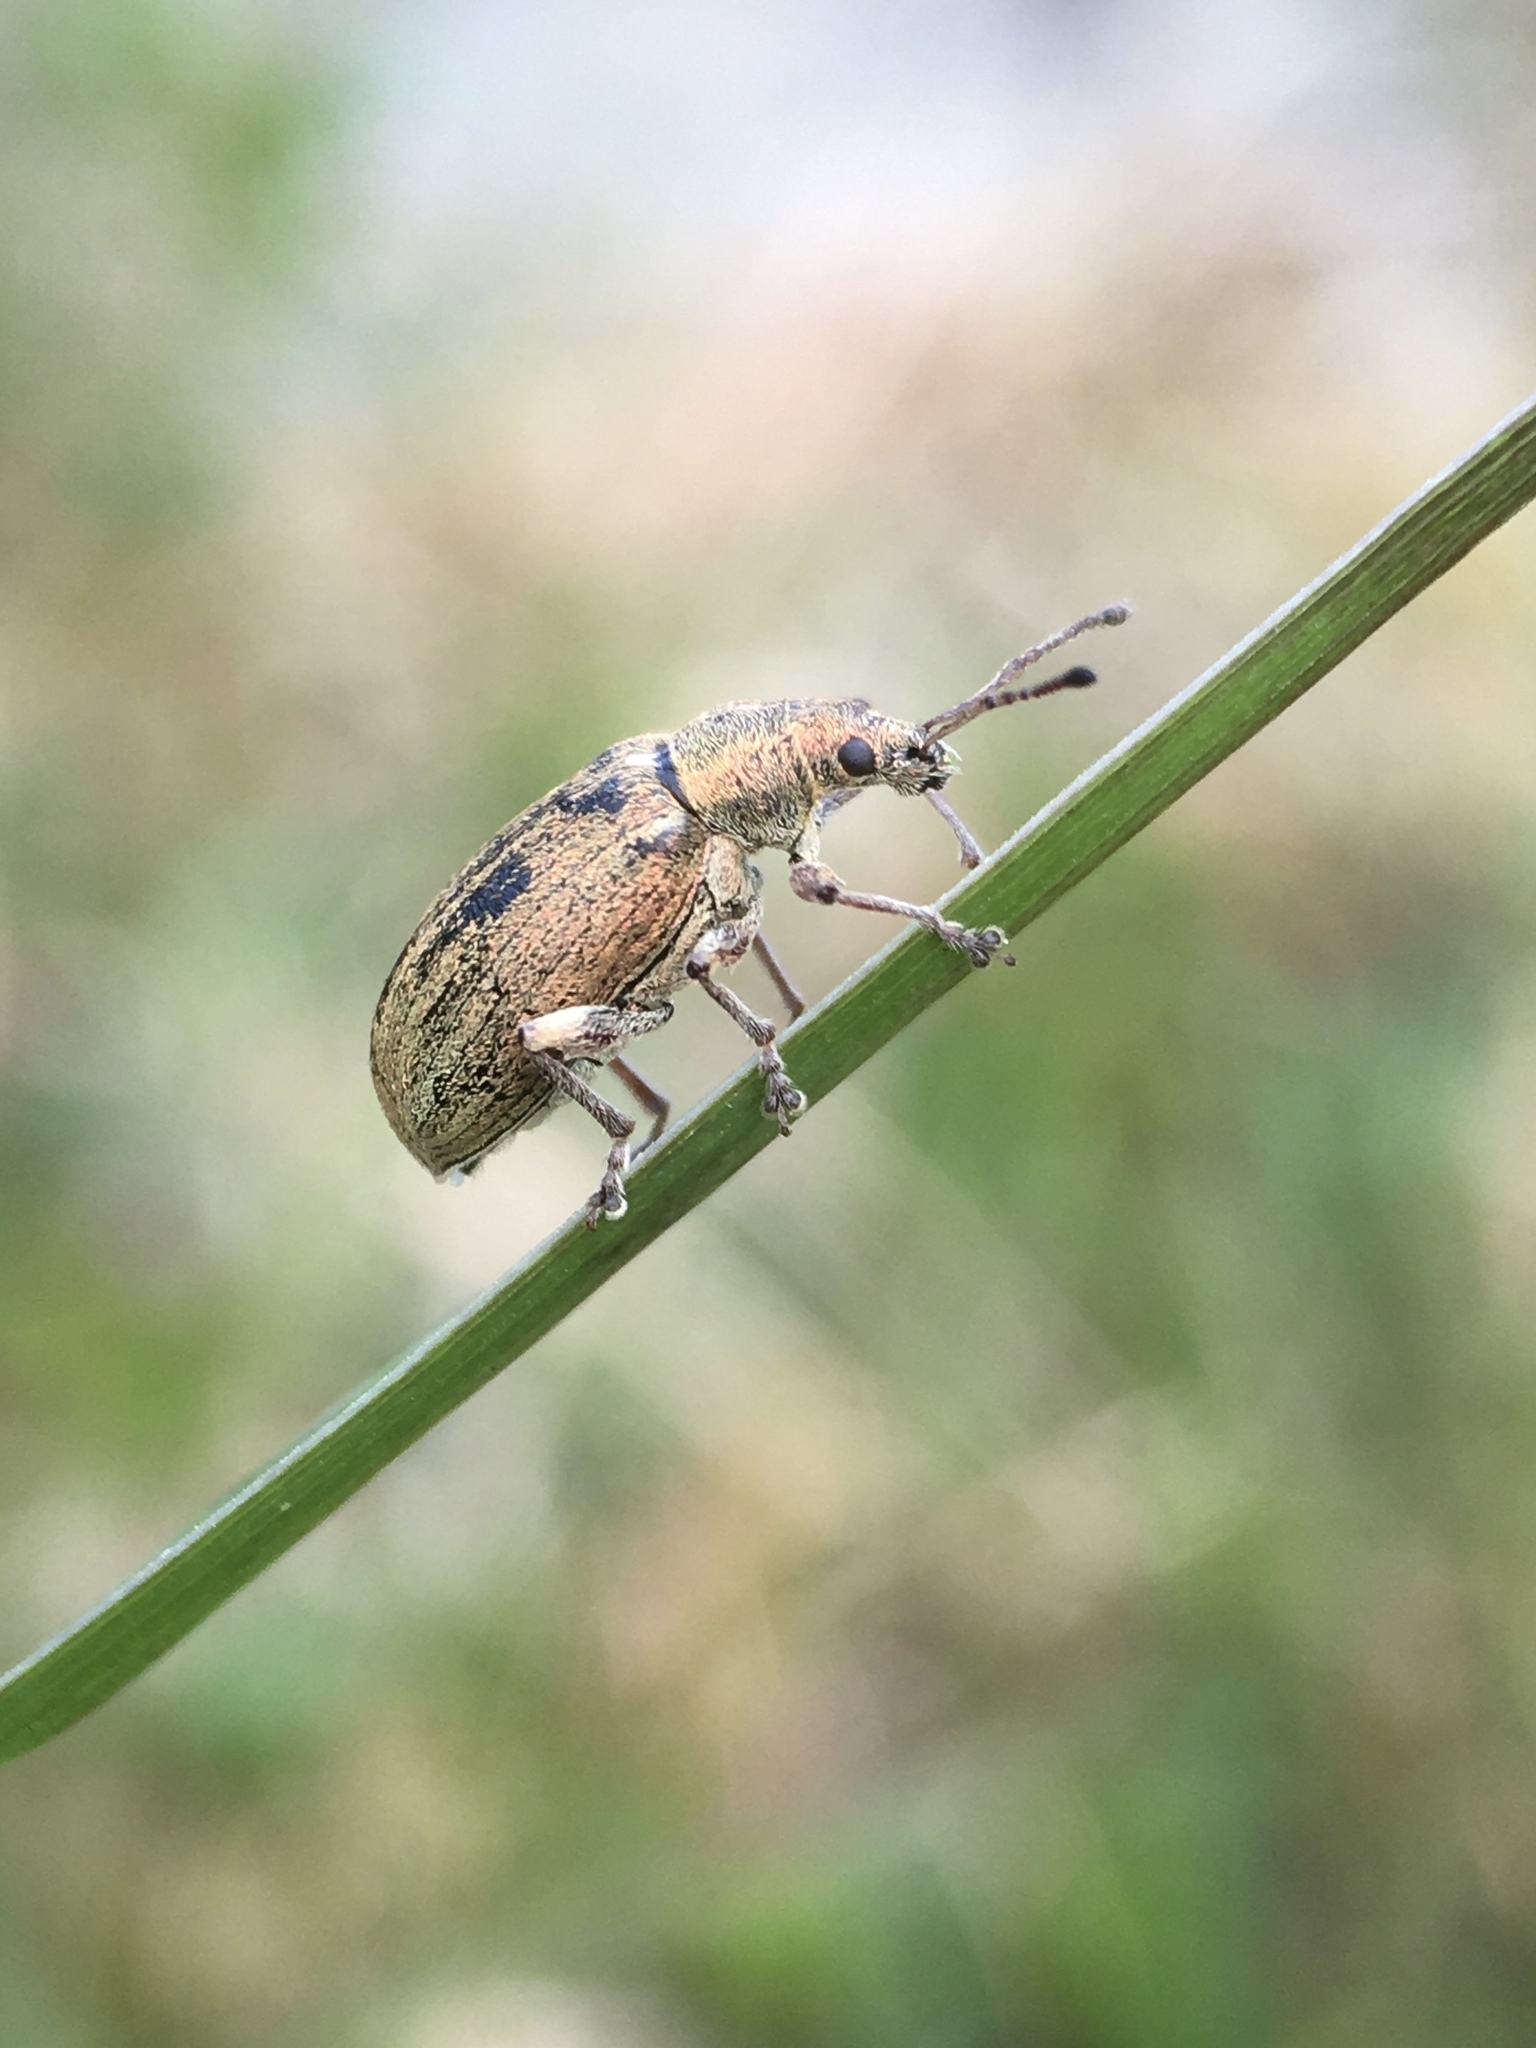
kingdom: Animalia
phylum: Arthropoda
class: Insecta
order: Coleoptera
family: Curculionidae
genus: Phyllobius
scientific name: Phyllobius pyri
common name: Common leaf weevil
